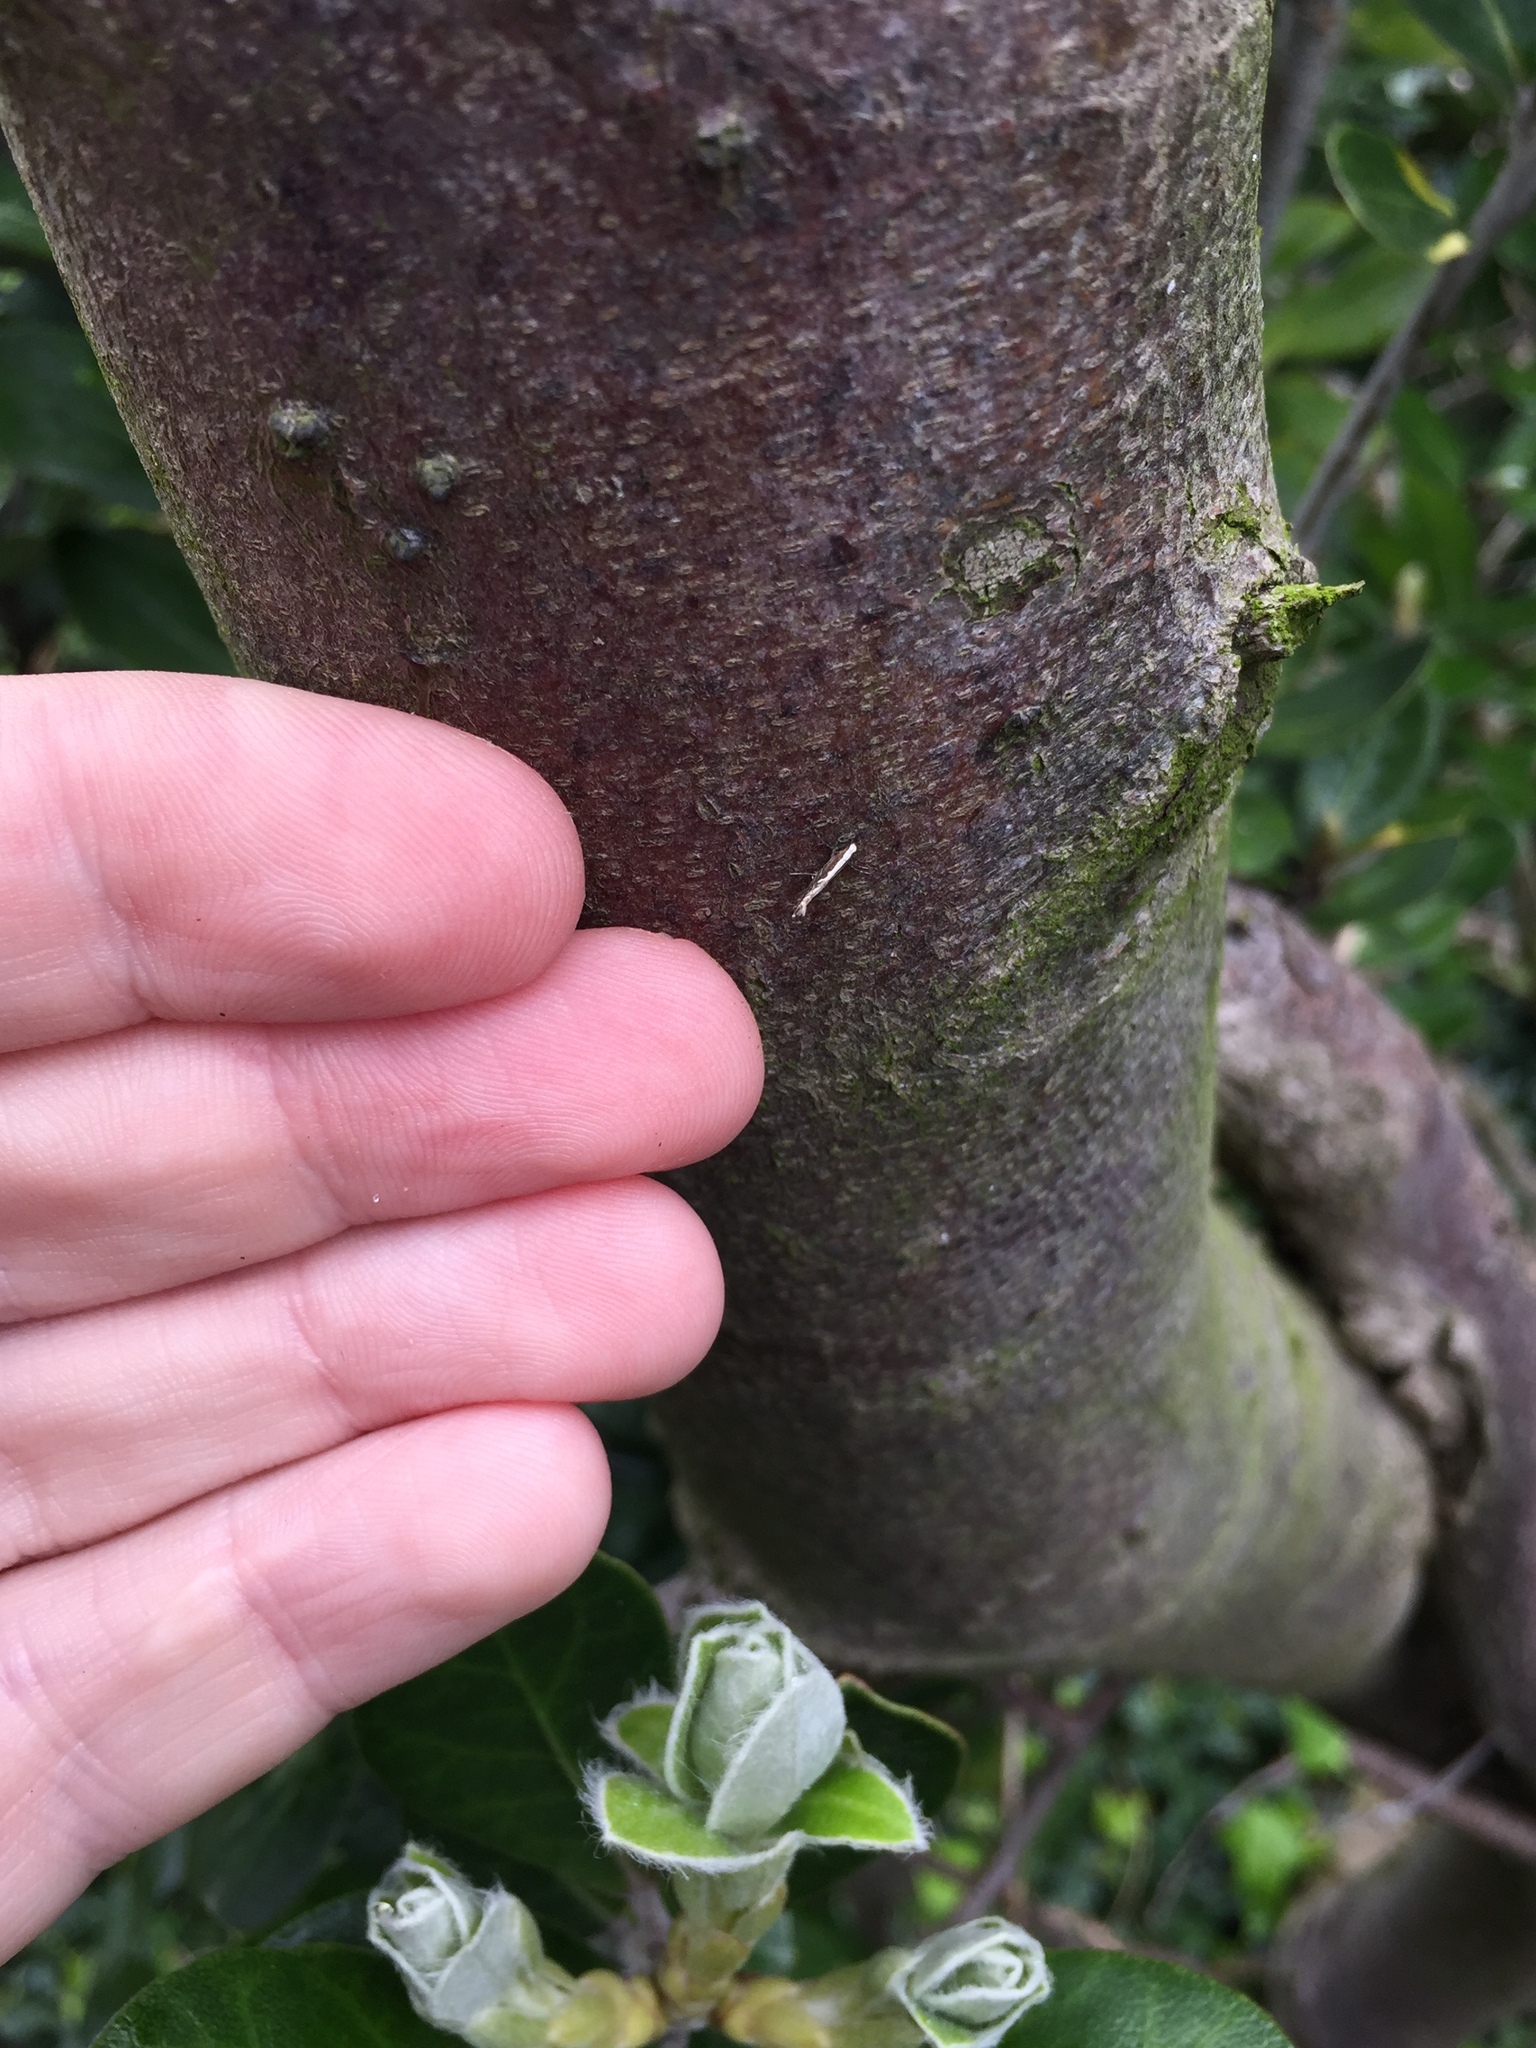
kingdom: Animalia
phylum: Arthropoda
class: Insecta
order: Lepidoptera
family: Gracillariidae
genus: Parectopa
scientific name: Parectopa alysidota
